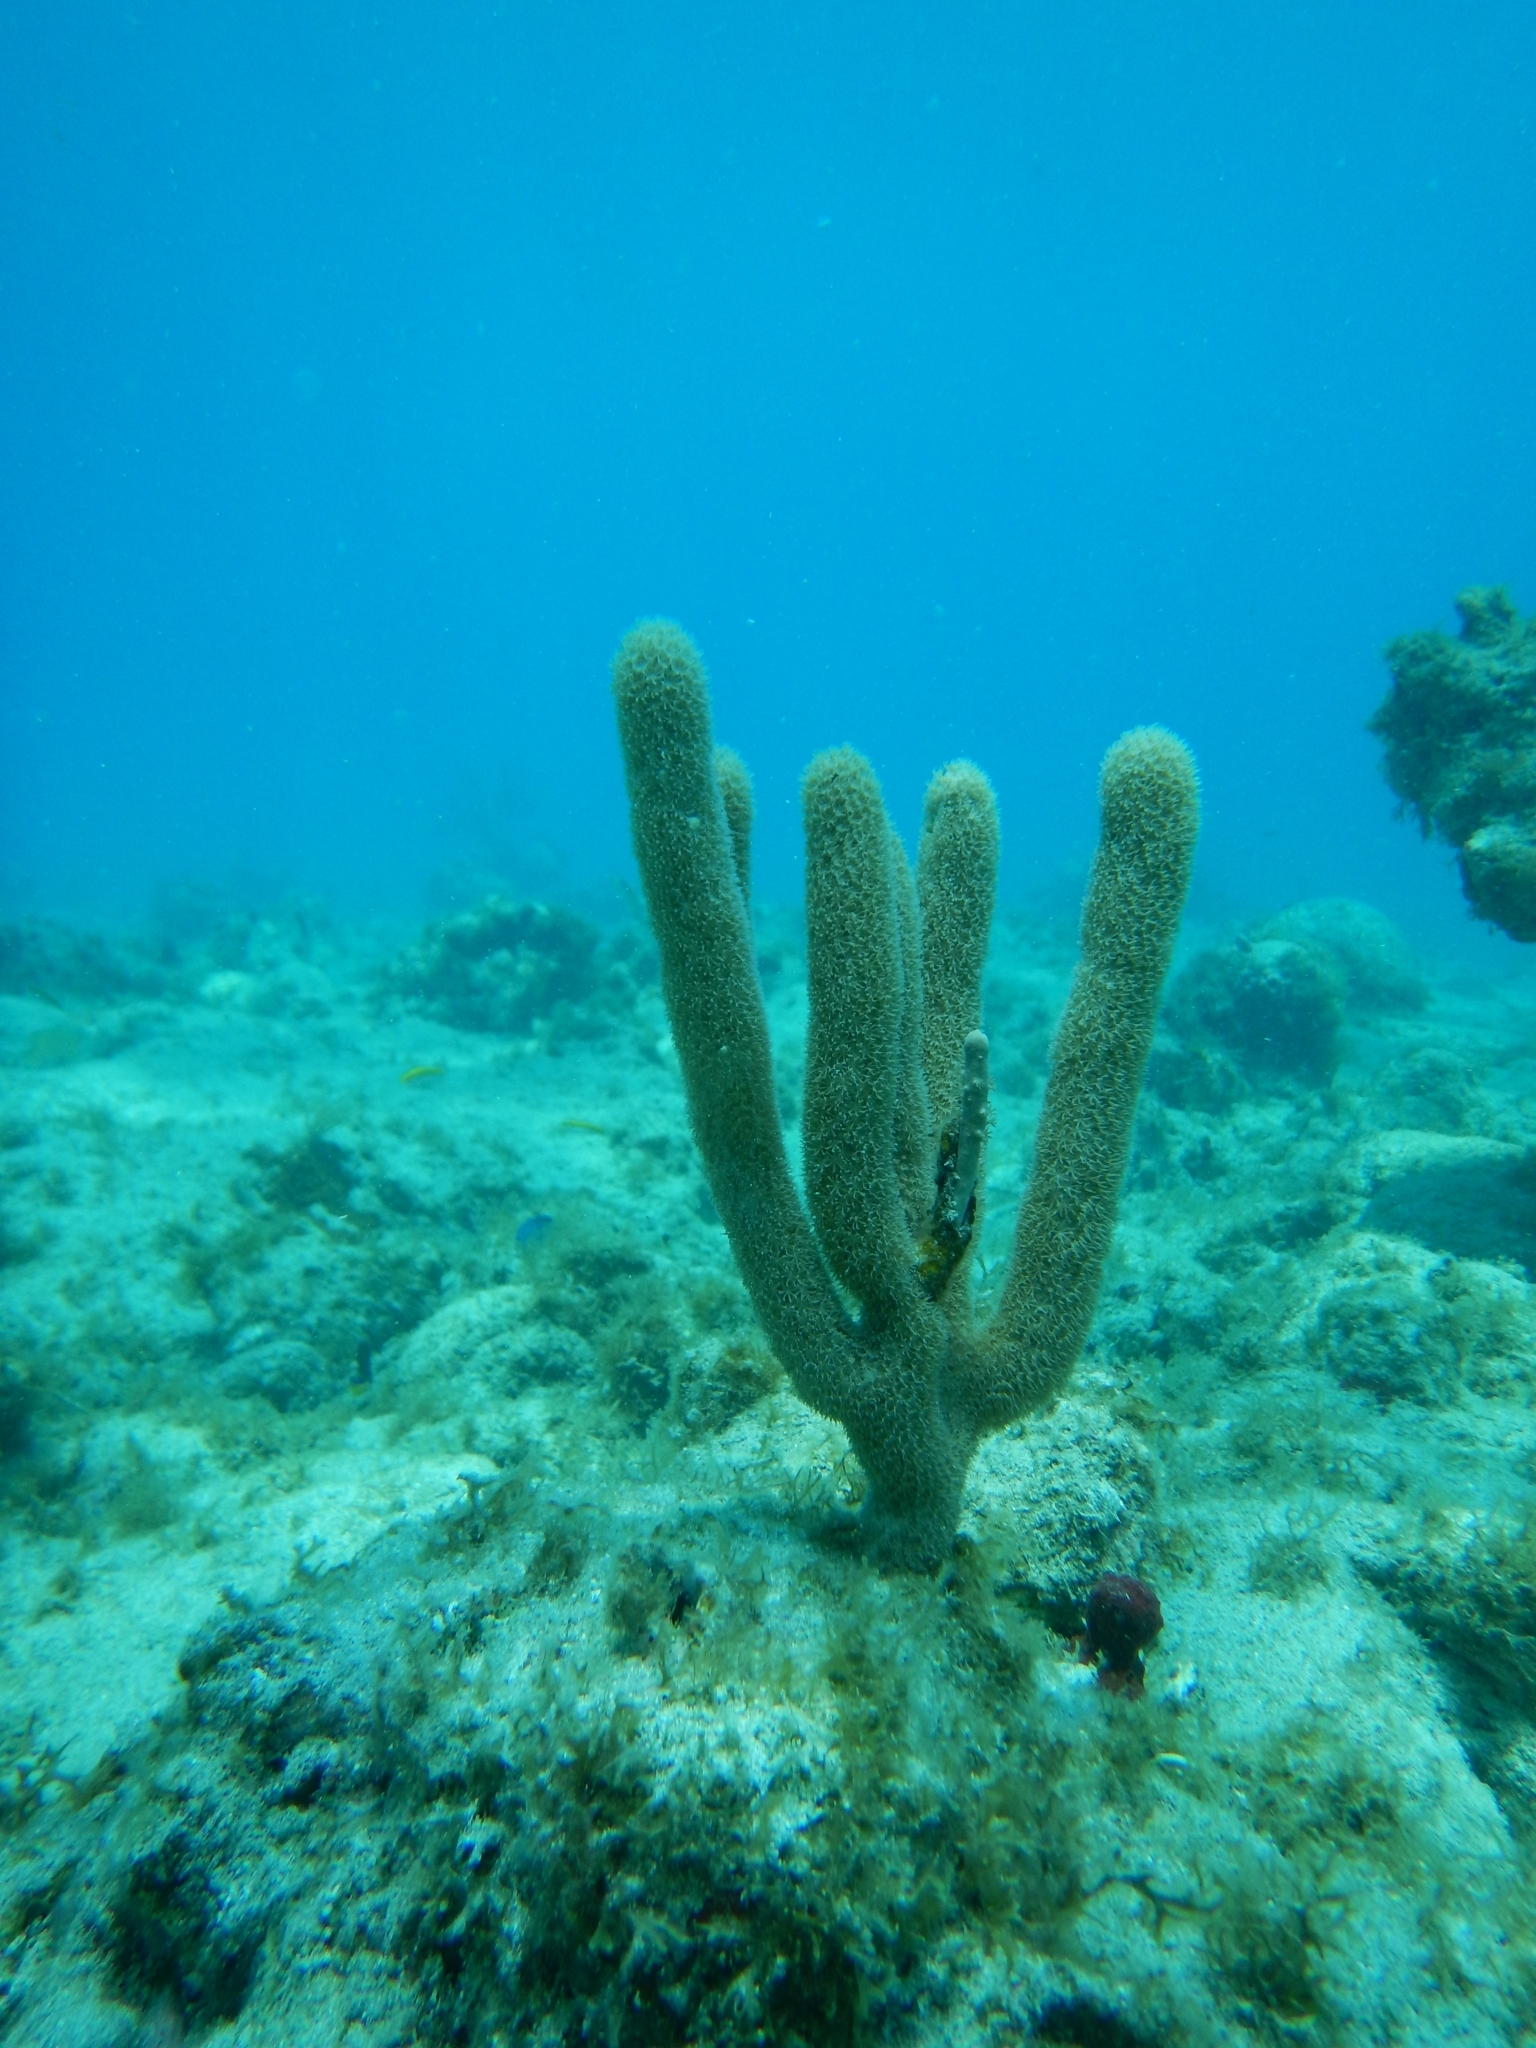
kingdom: Animalia
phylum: Cnidaria
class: Anthozoa
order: Scleralcyonacea
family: Briareidae
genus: Briareum
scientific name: Briareum asbestinum
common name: Corky sea finger
